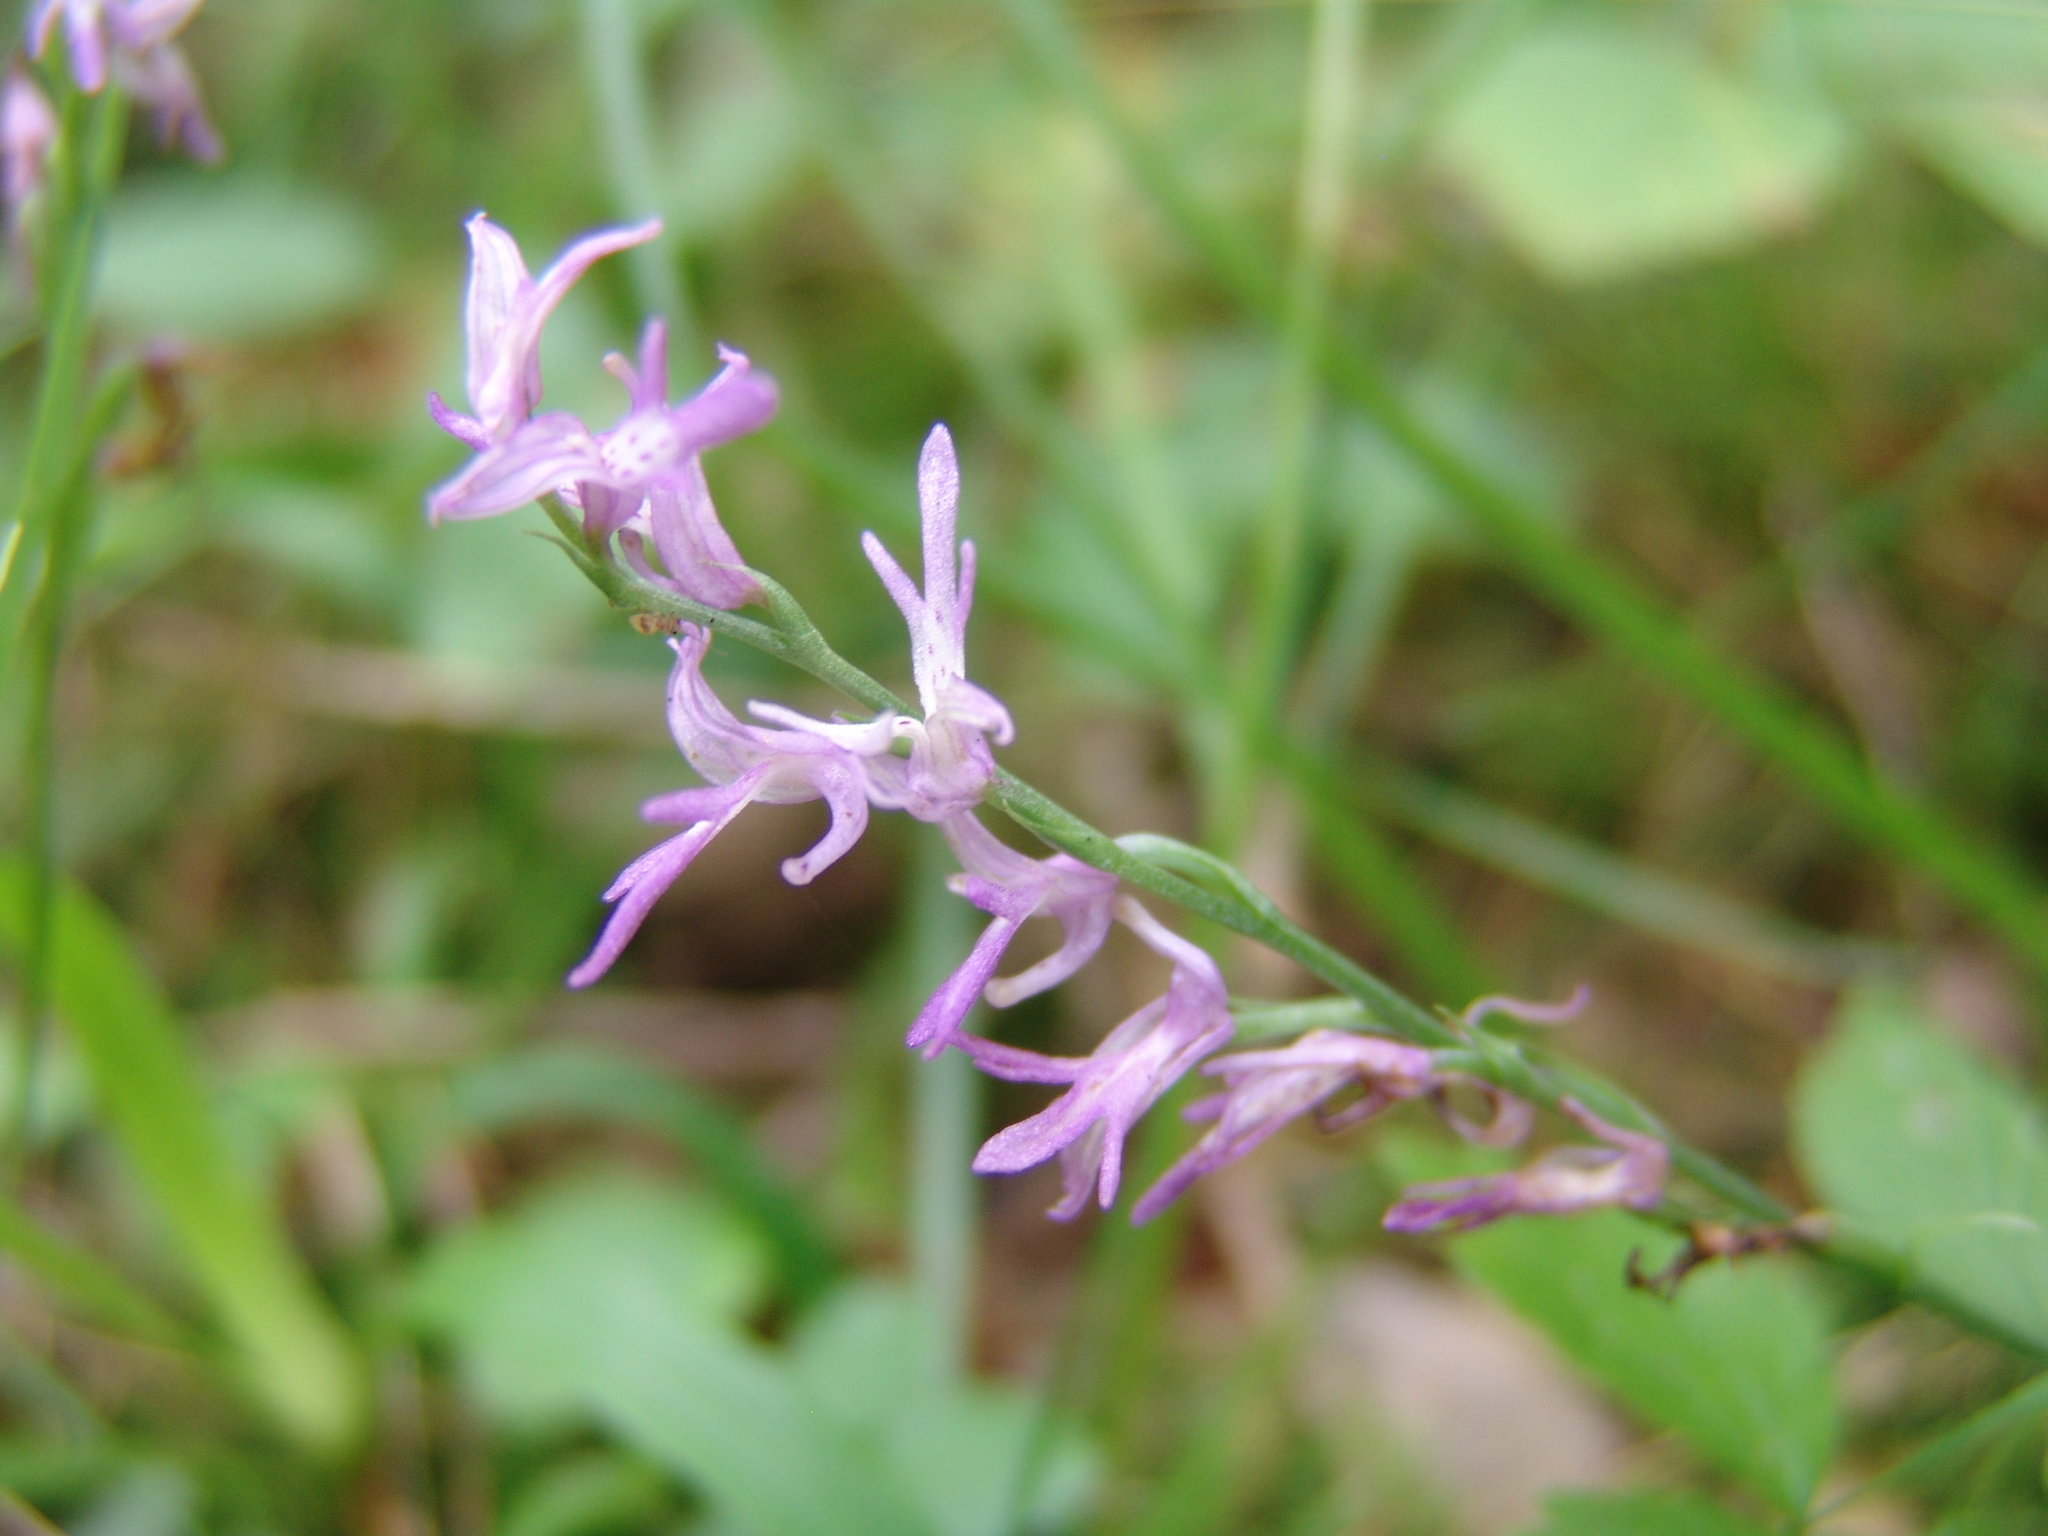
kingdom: Plantae
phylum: Tracheophyta
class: Liliopsida
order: Asparagales
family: Orchidaceae
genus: Hemipilia
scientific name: Hemipilia cucullata
